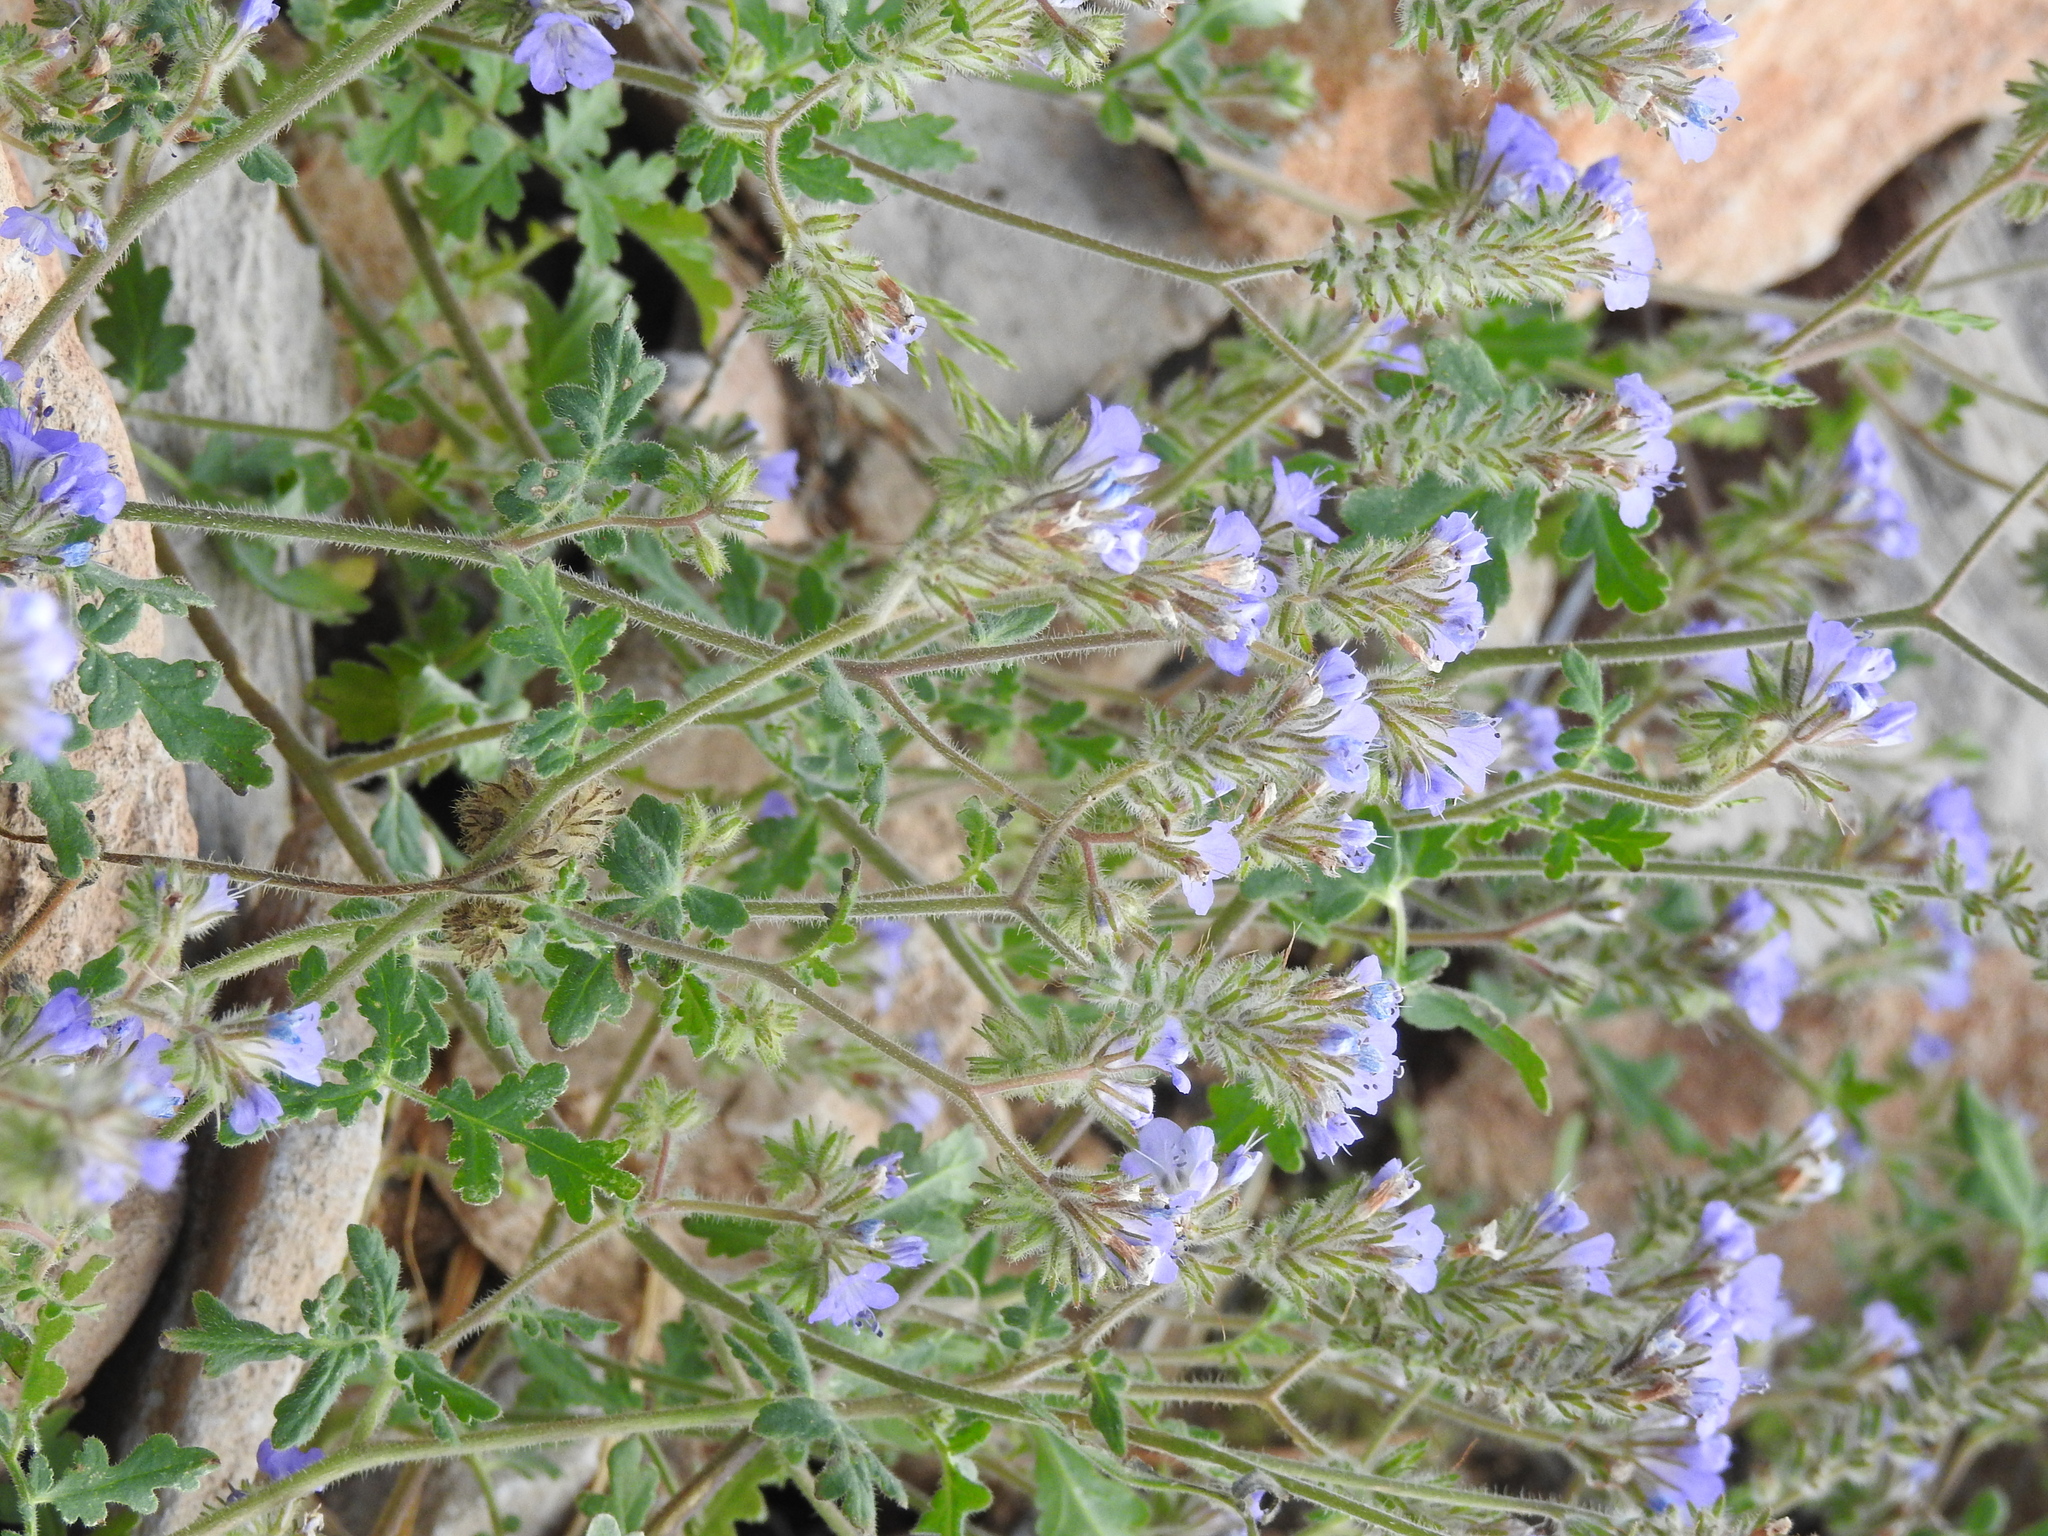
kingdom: Plantae
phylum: Tracheophyta
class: Magnoliopsida
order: Boraginales
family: Hydrophyllaceae
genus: Phacelia
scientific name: Phacelia distans
